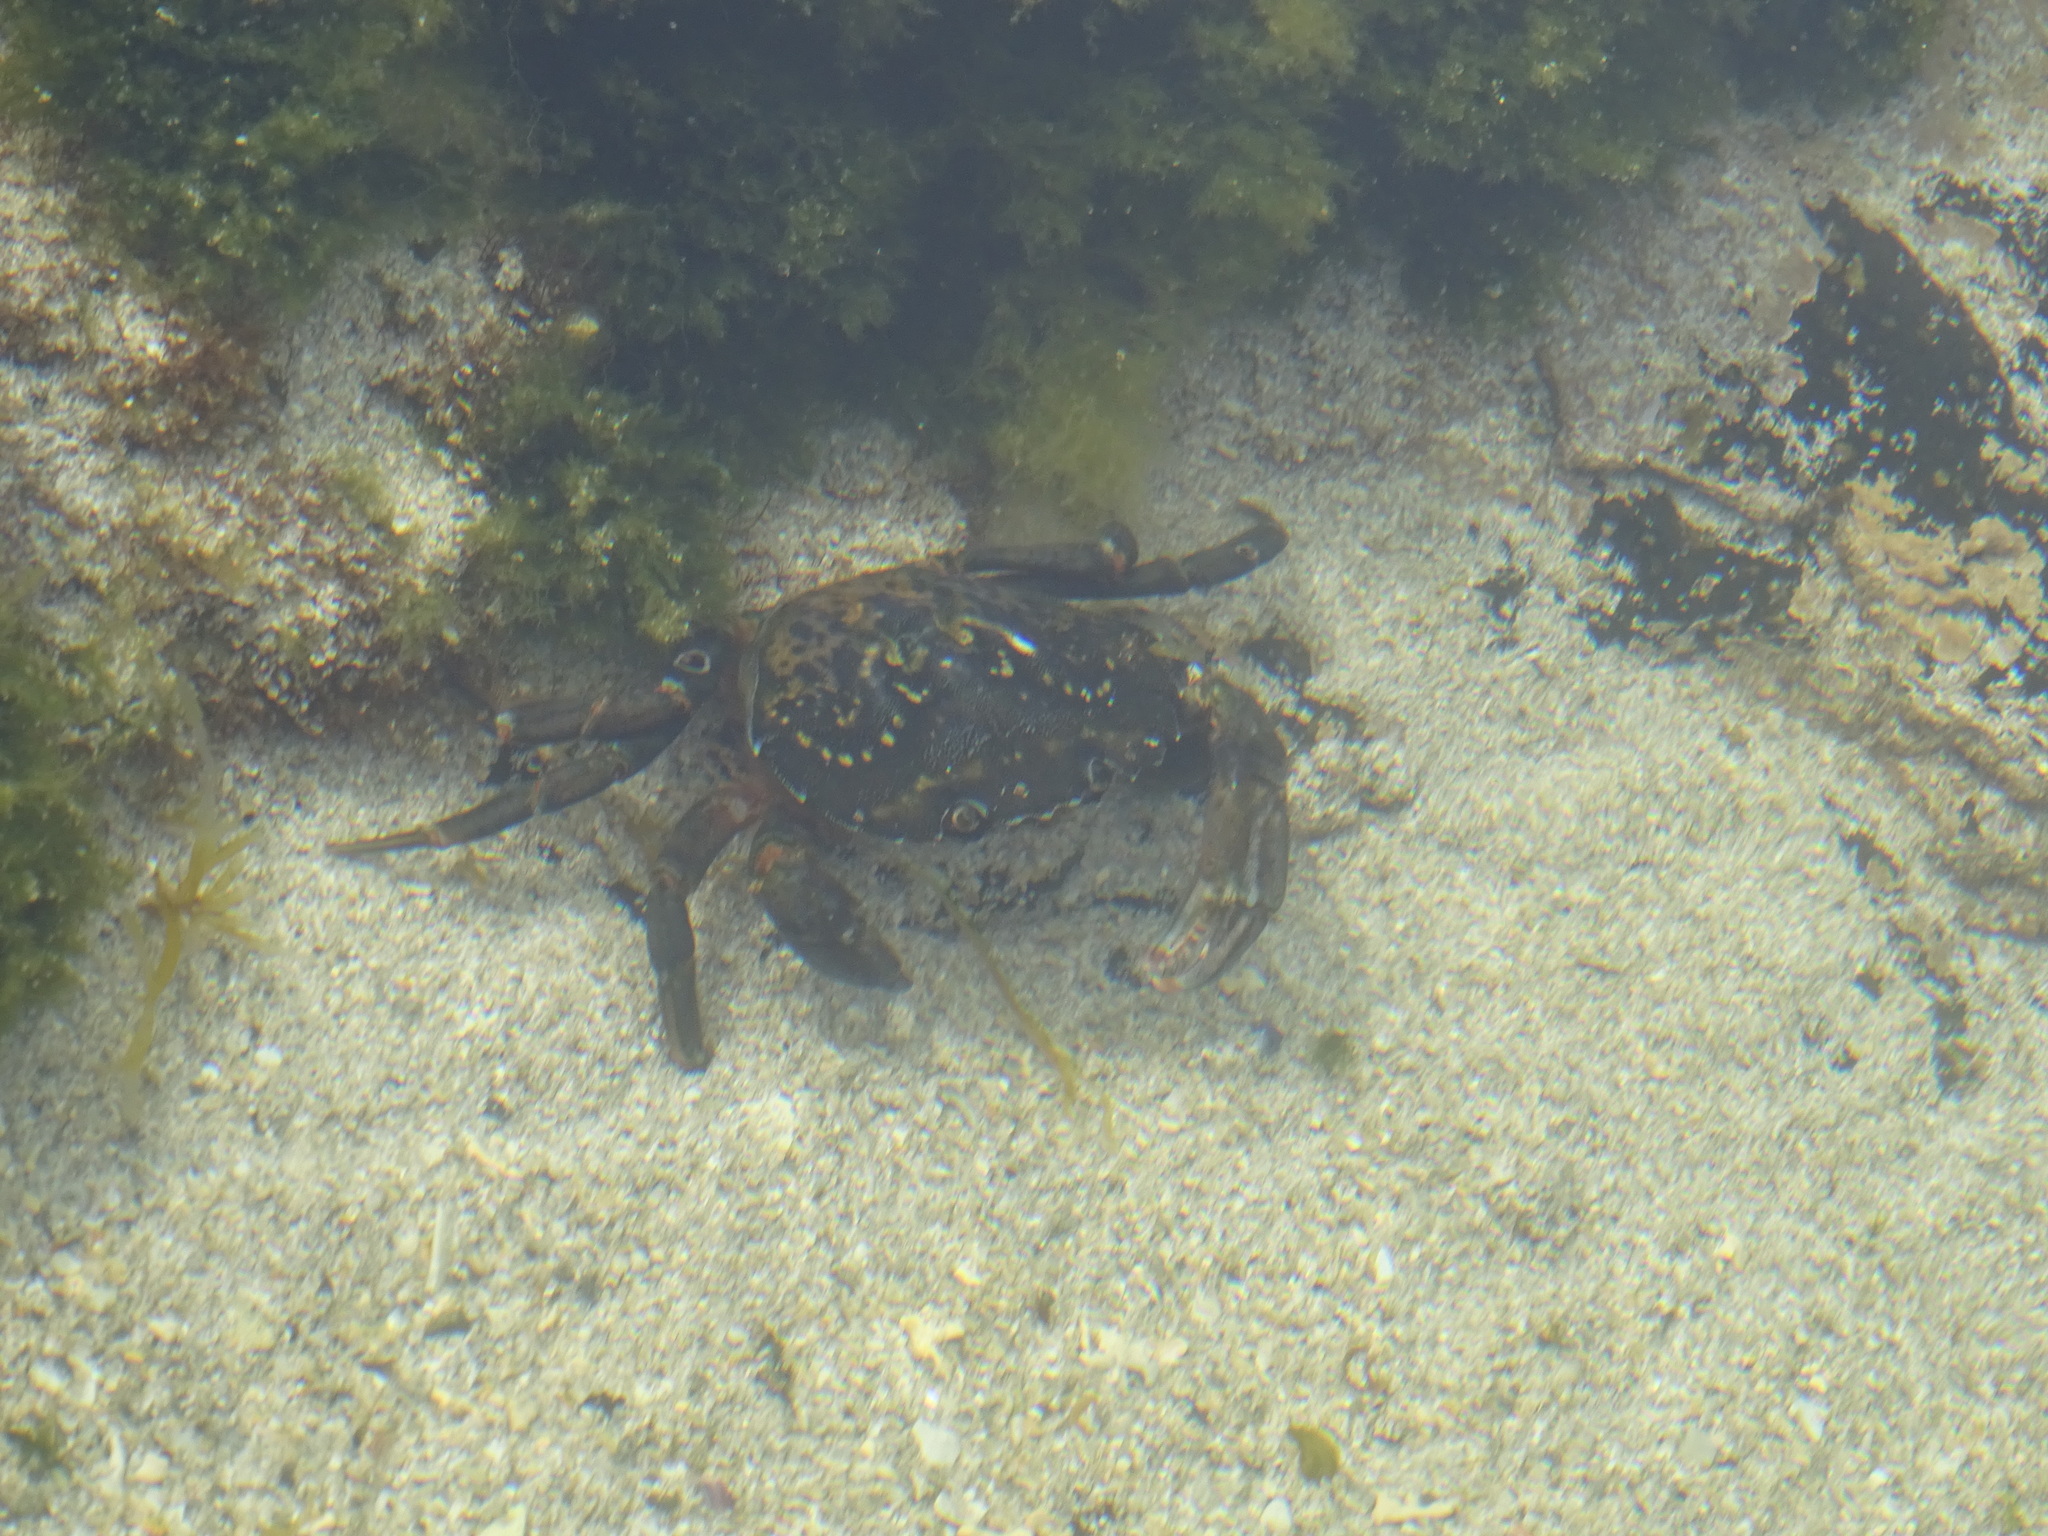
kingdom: Animalia
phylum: Arthropoda
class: Malacostraca
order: Decapoda
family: Carcinidae
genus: Carcinus
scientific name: Carcinus maenas
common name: European green crab
